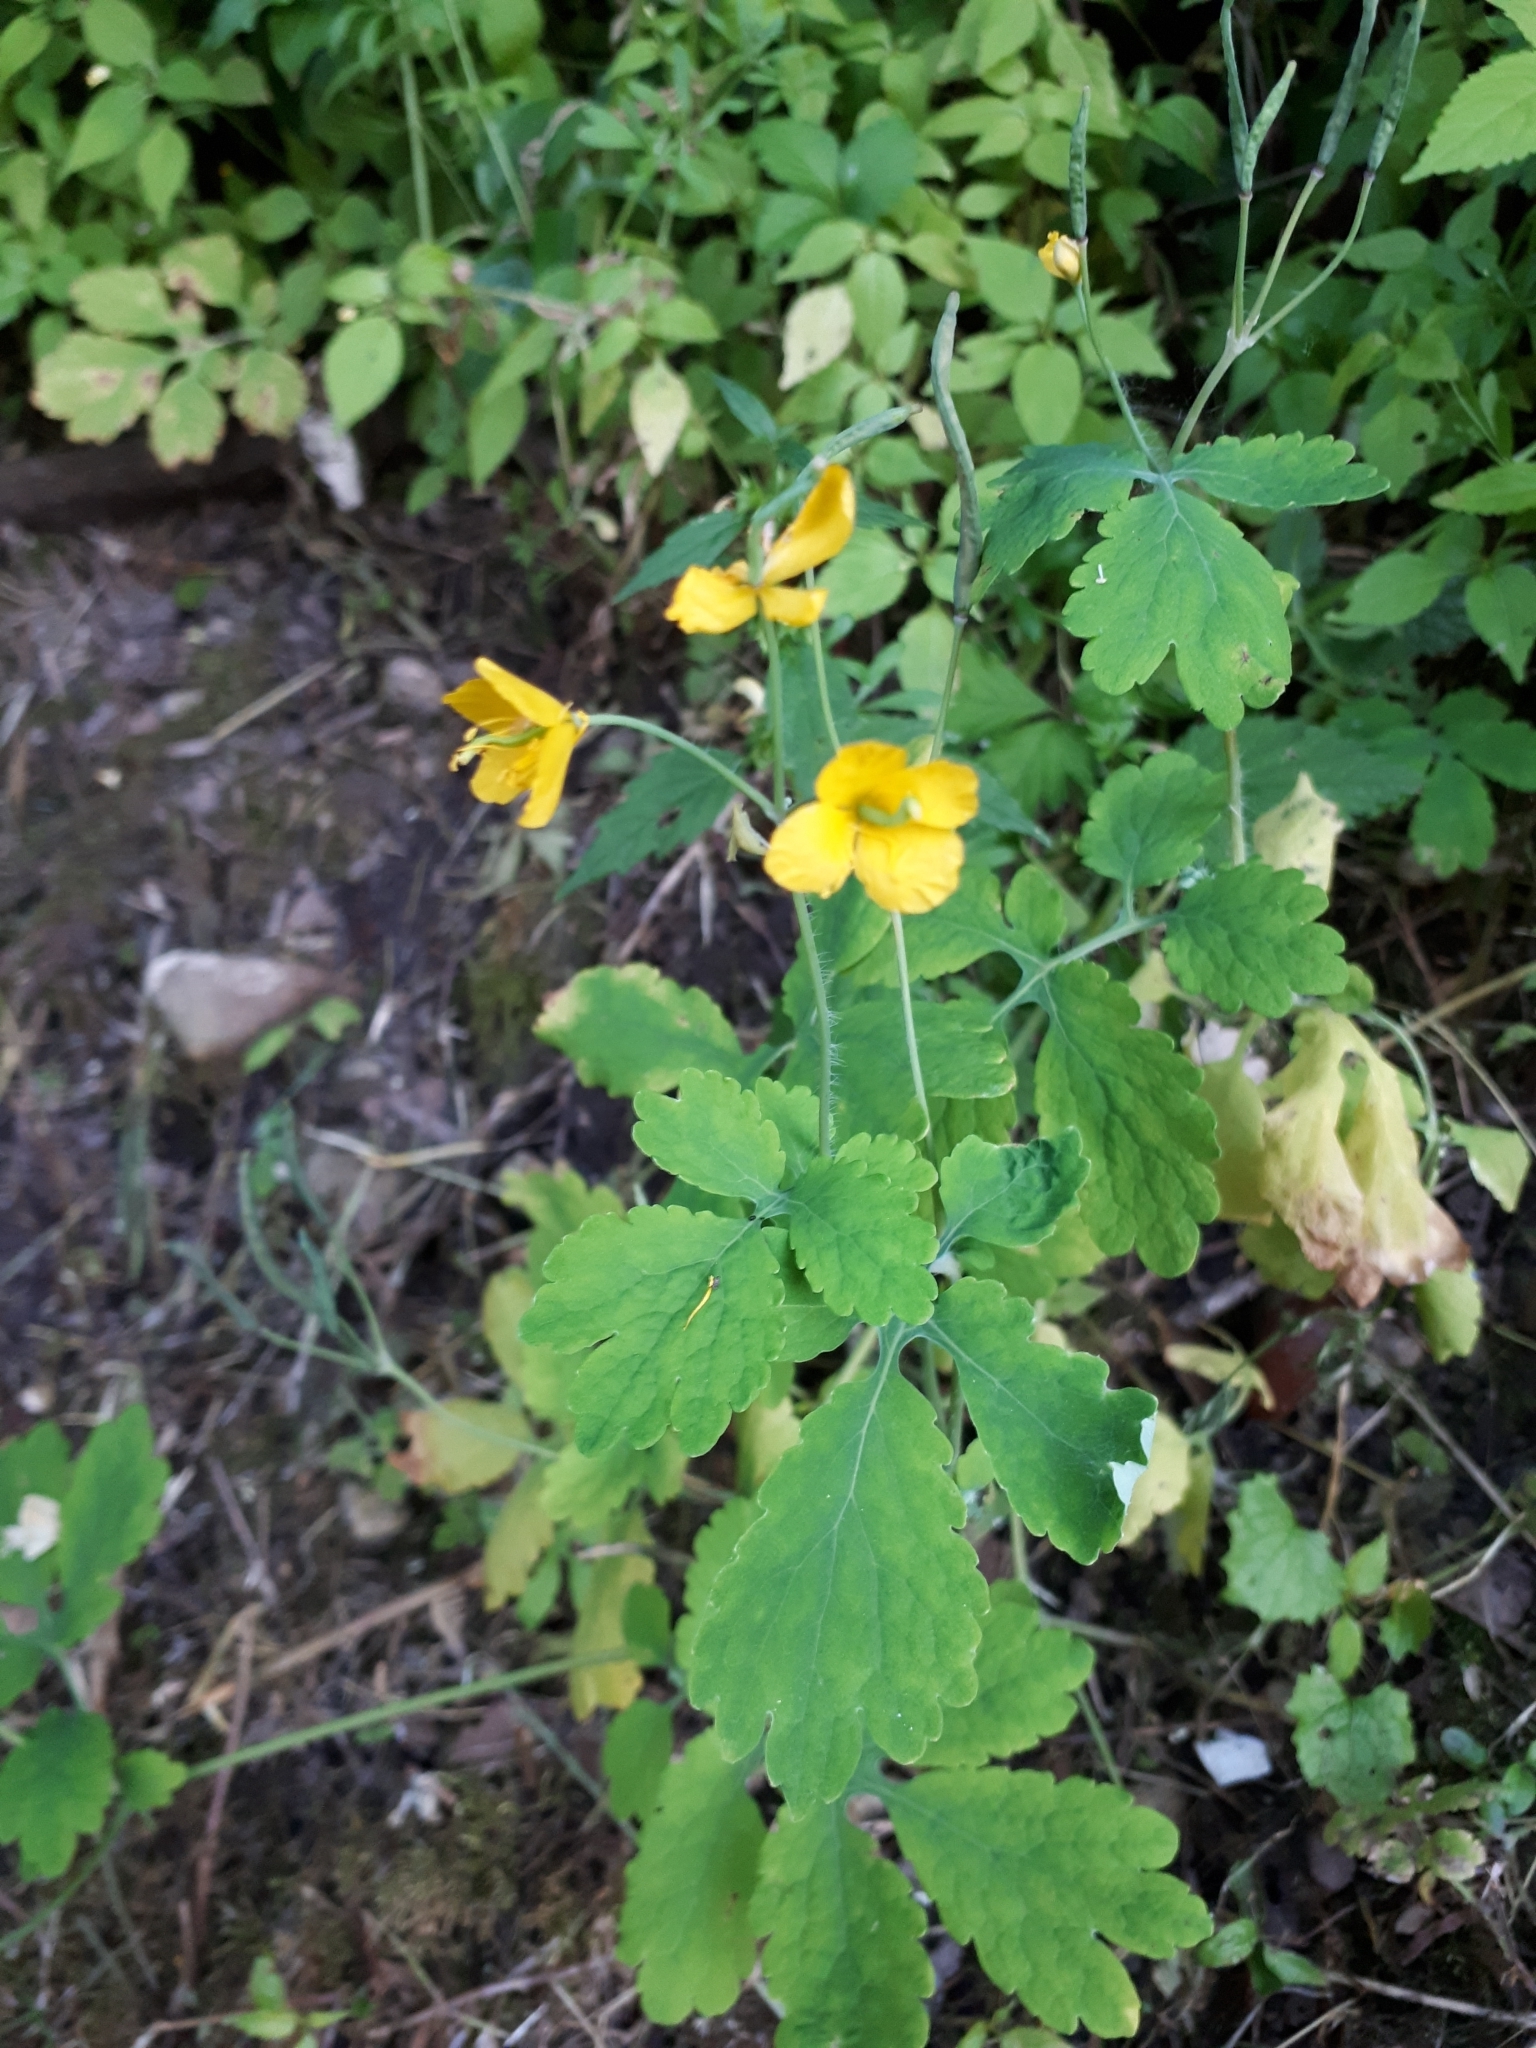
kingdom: Plantae
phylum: Tracheophyta
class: Magnoliopsida
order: Ranunculales
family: Papaveraceae
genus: Chelidonium
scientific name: Chelidonium majus
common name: Greater celandine
